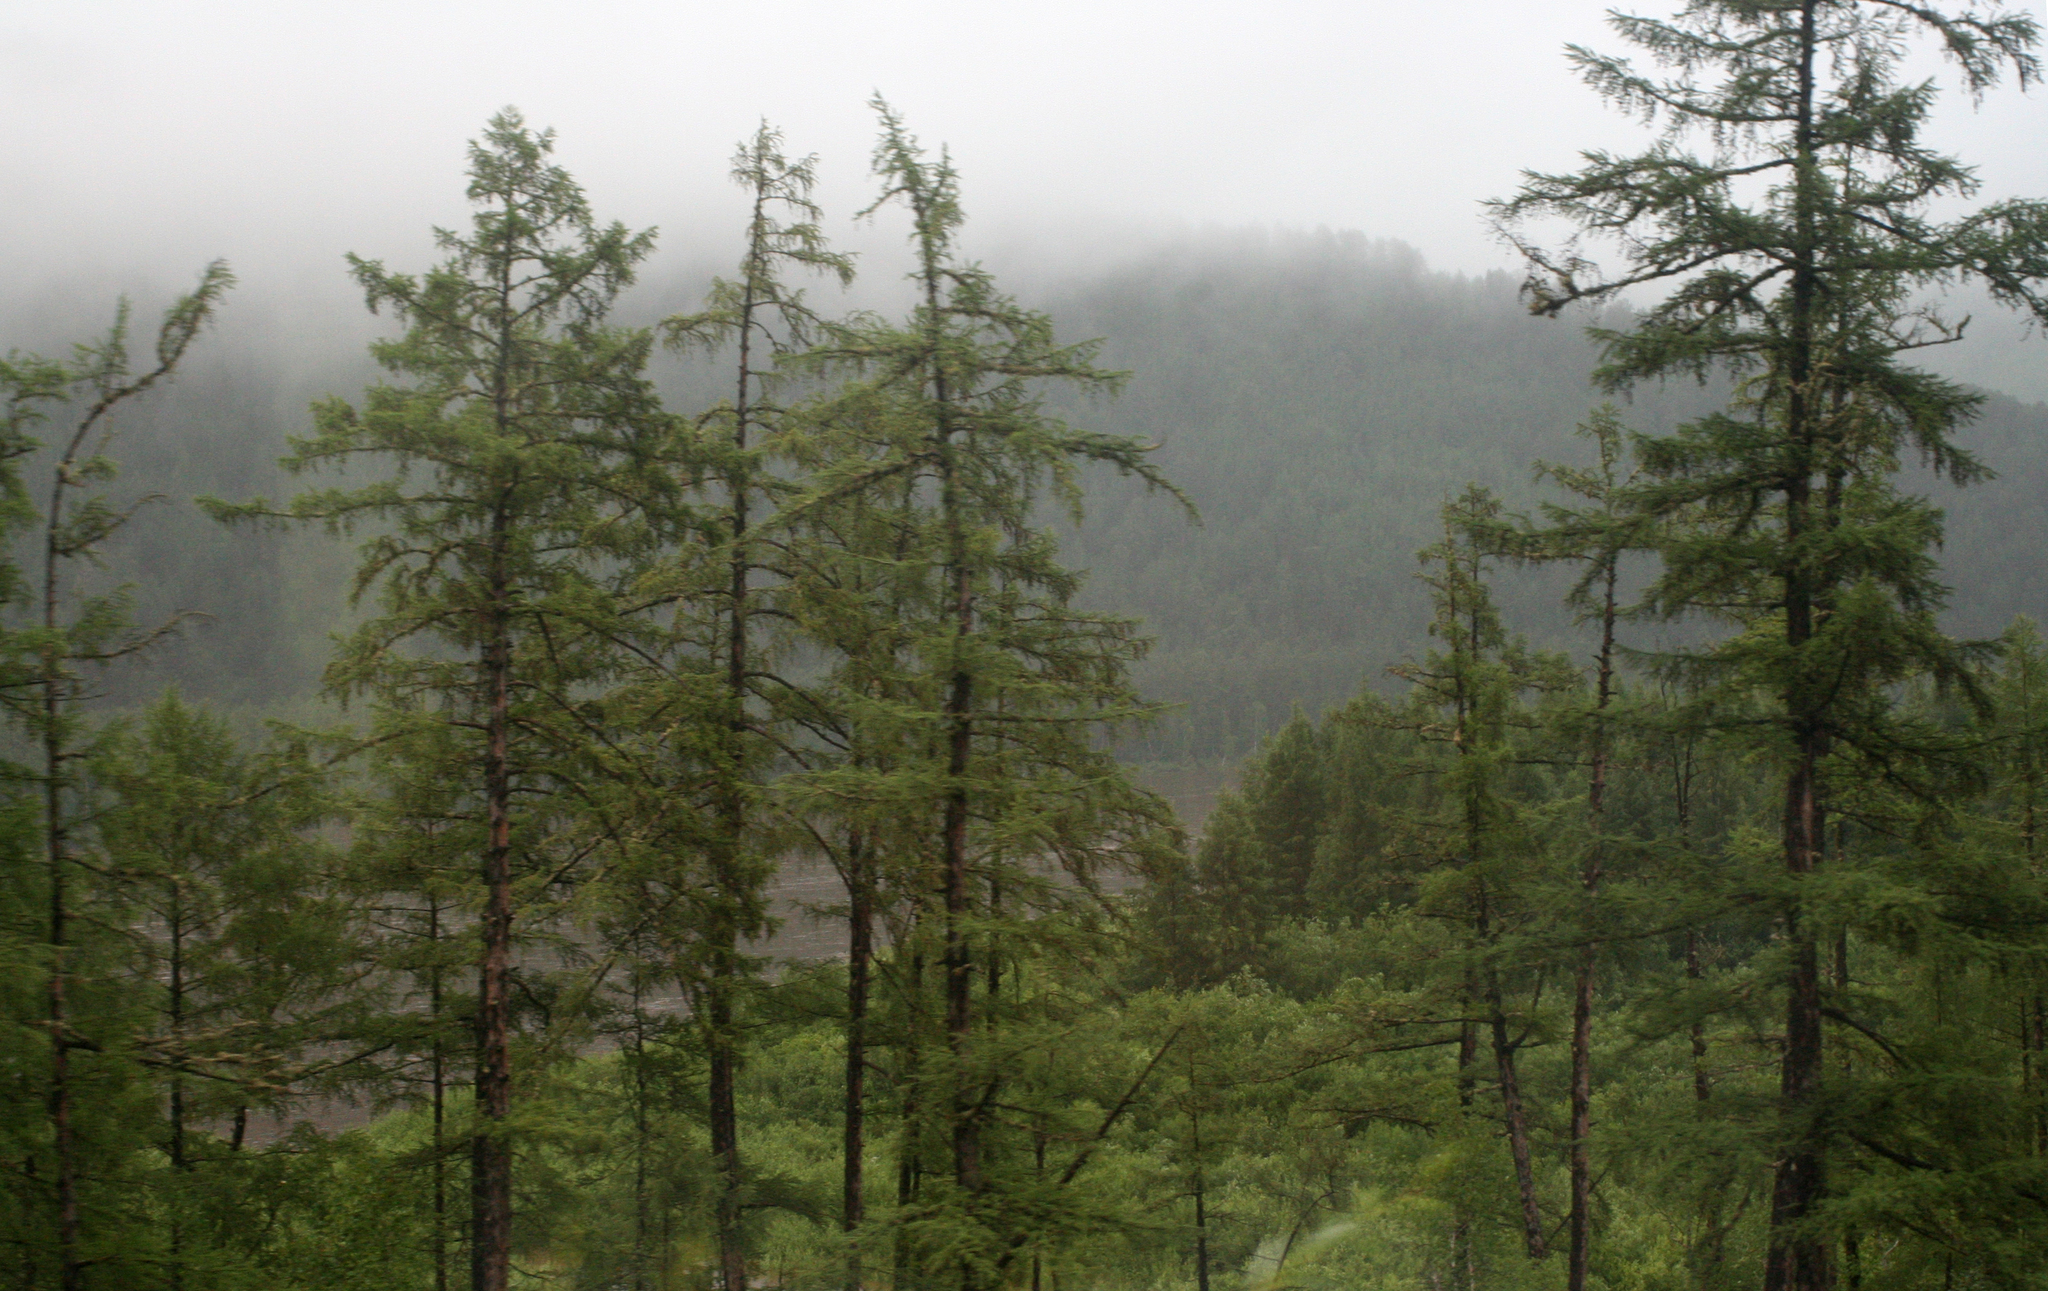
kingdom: Plantae
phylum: Tracheophyta
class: Pinopsida
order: Pinales
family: Pinaceae
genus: Larix
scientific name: Larix gmelinii
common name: Dahurian larch
